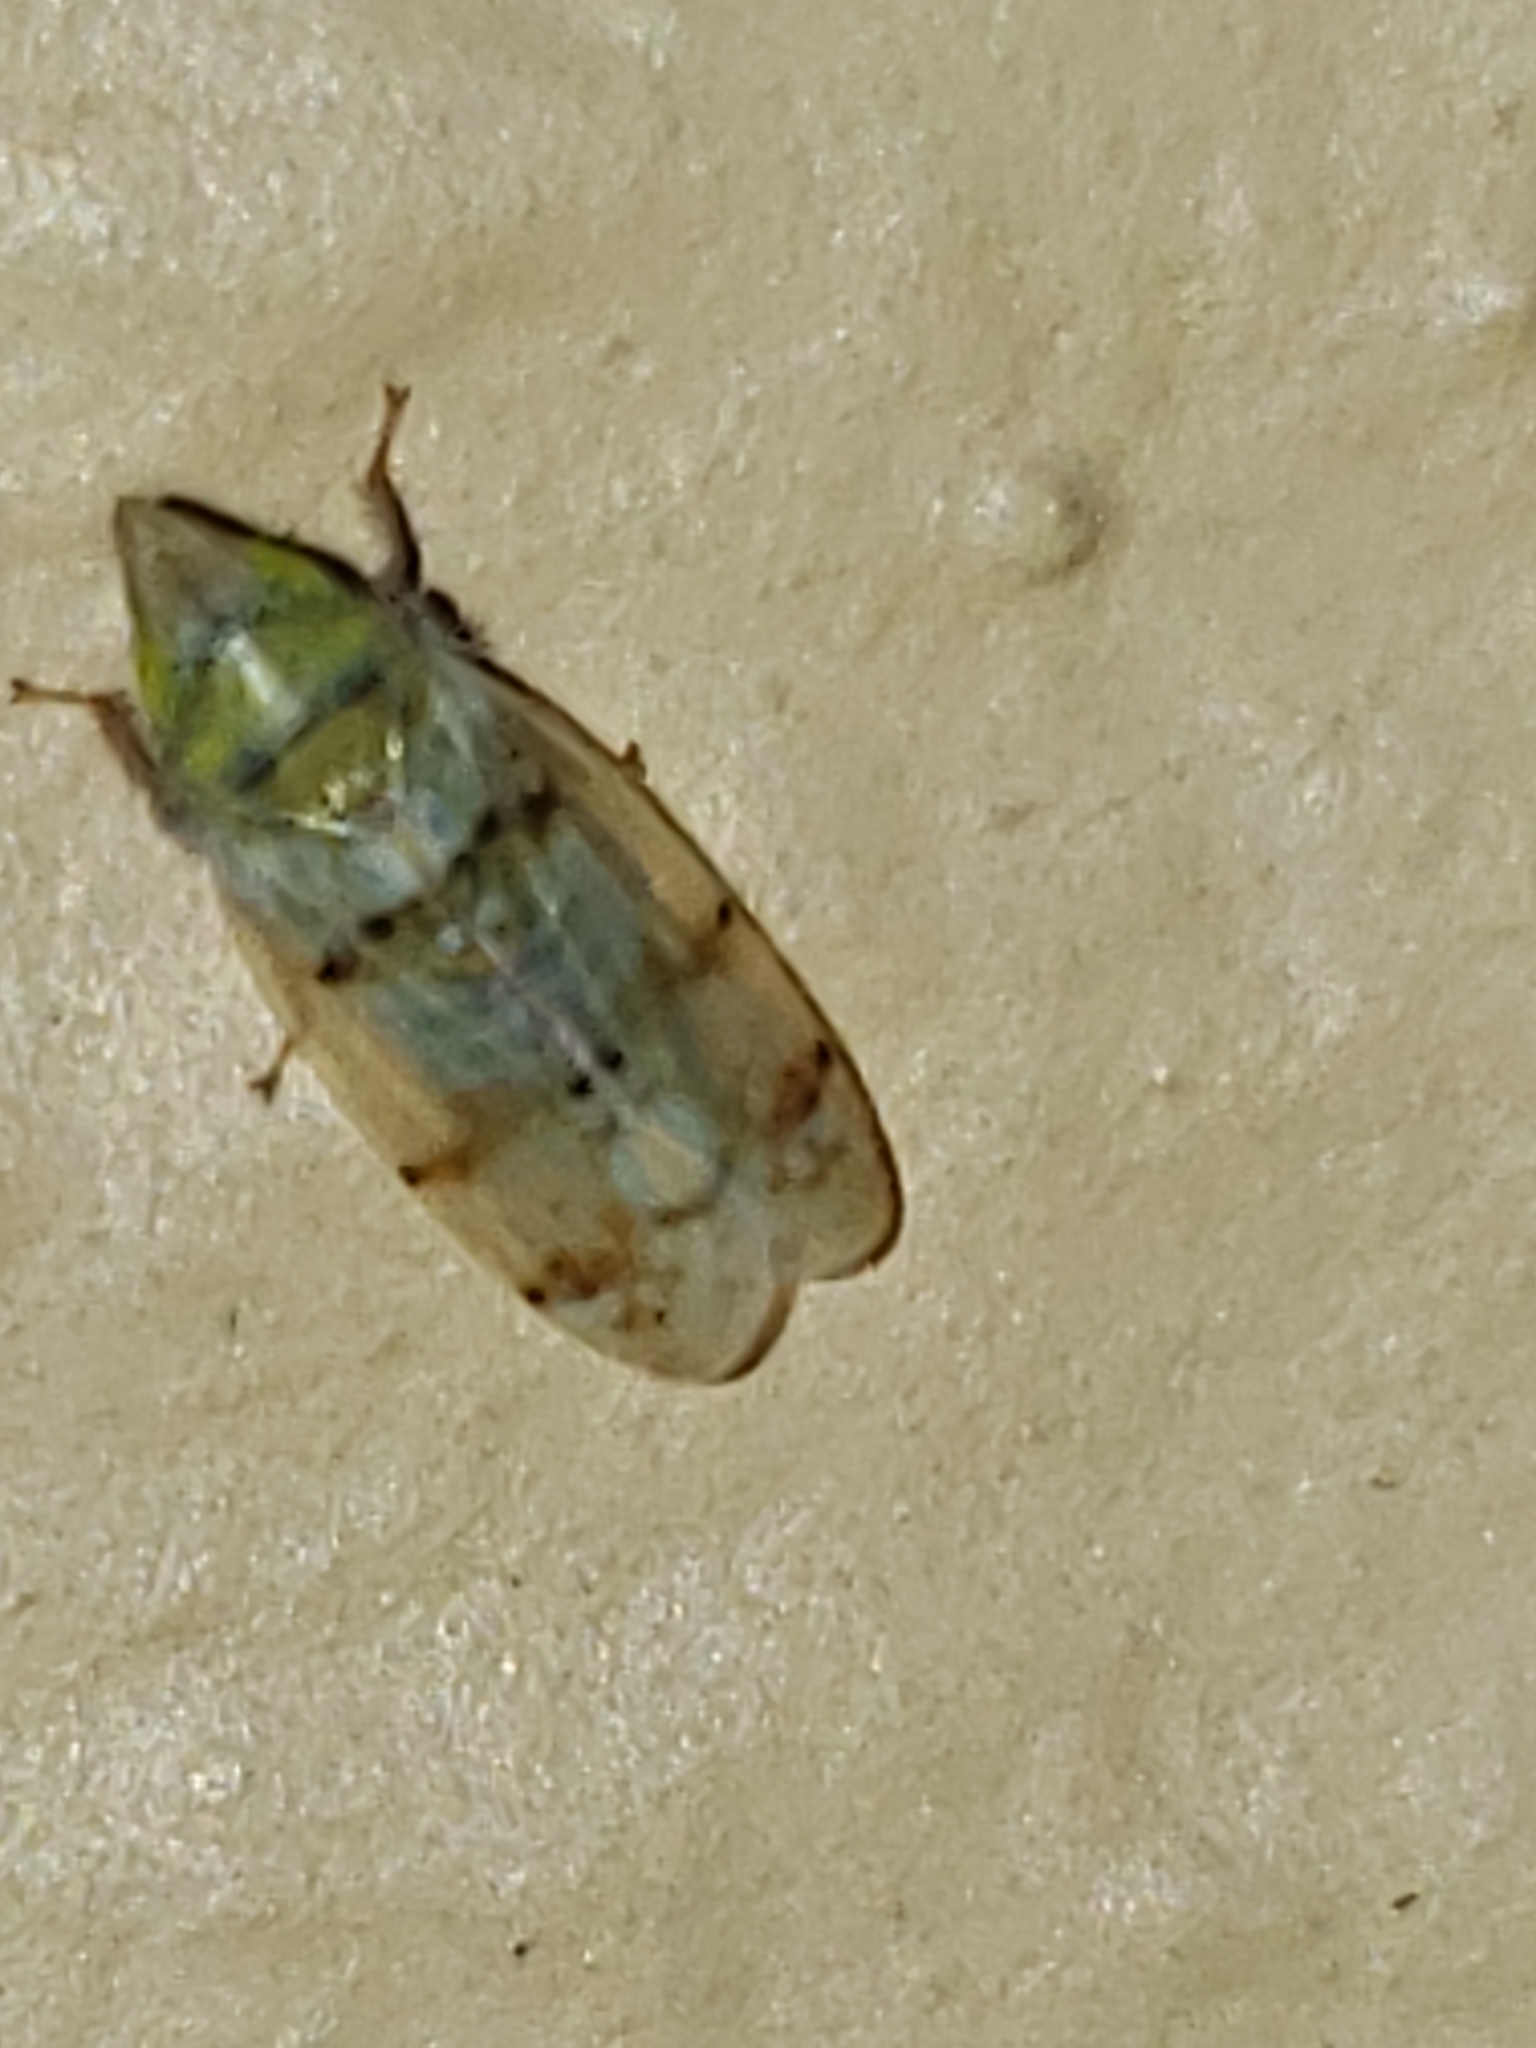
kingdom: Animalia
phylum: Arthropoda
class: Insecta
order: Hemiptera
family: Cicadellidae
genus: Japananus
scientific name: Japananus hyalinus
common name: The japanese maple leafhopper
